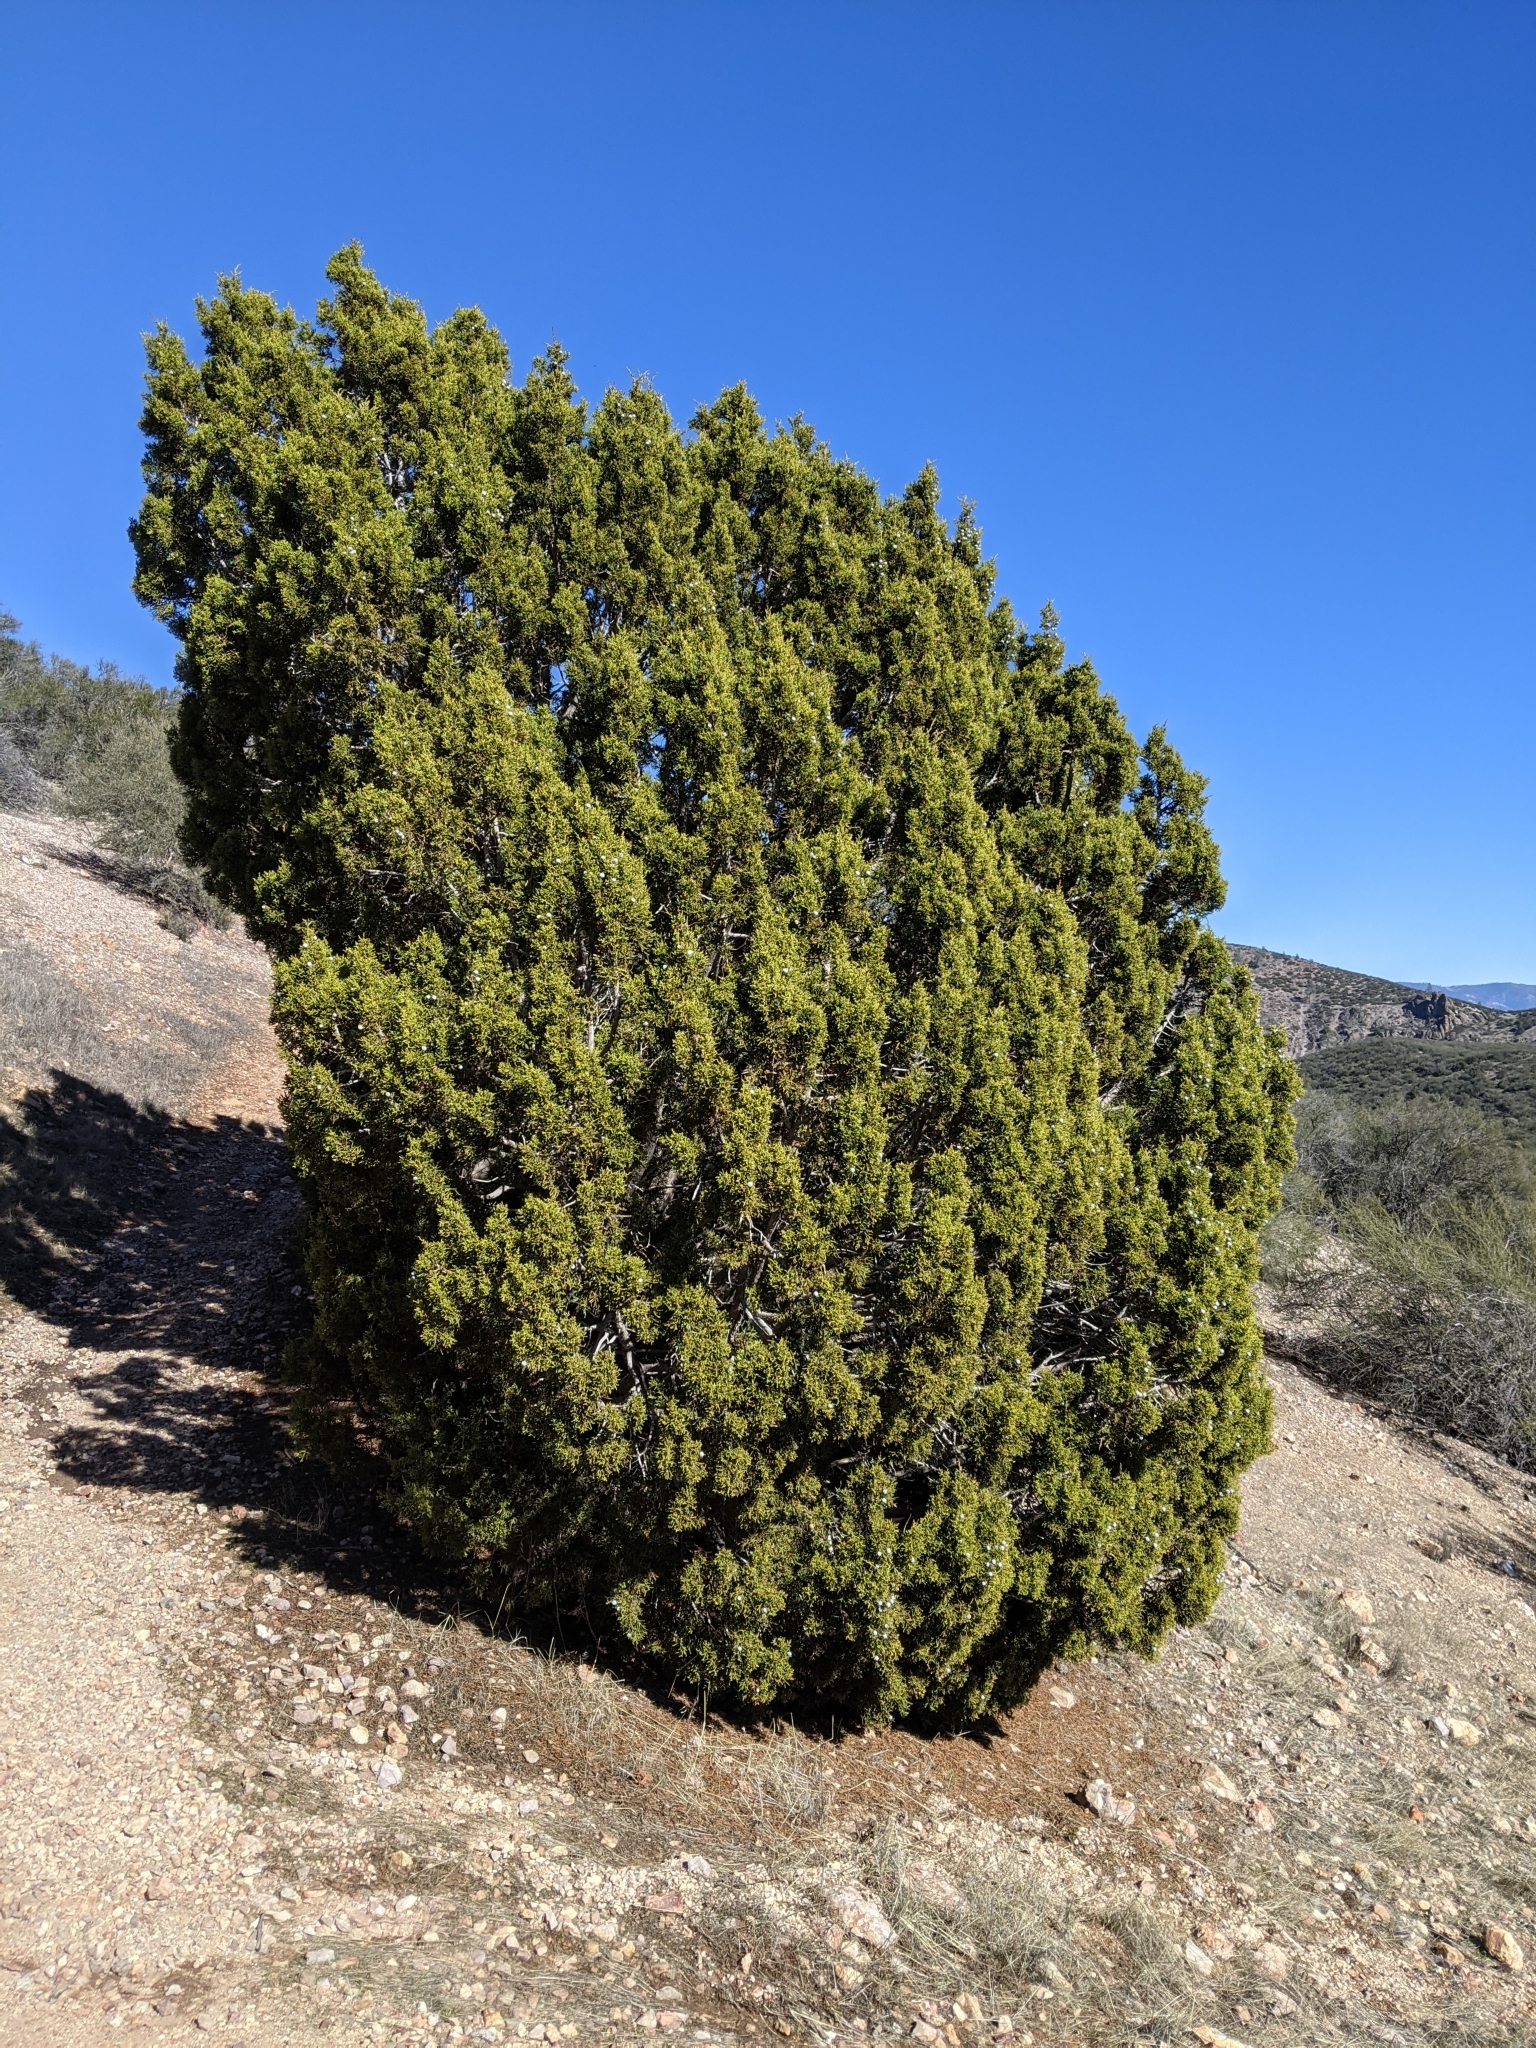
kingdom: Plantae
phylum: Tracheophyta
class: Pinopsida
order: Pinales
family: Cupressaceae
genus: Juniperus
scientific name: Juniperus californica
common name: California juniper
